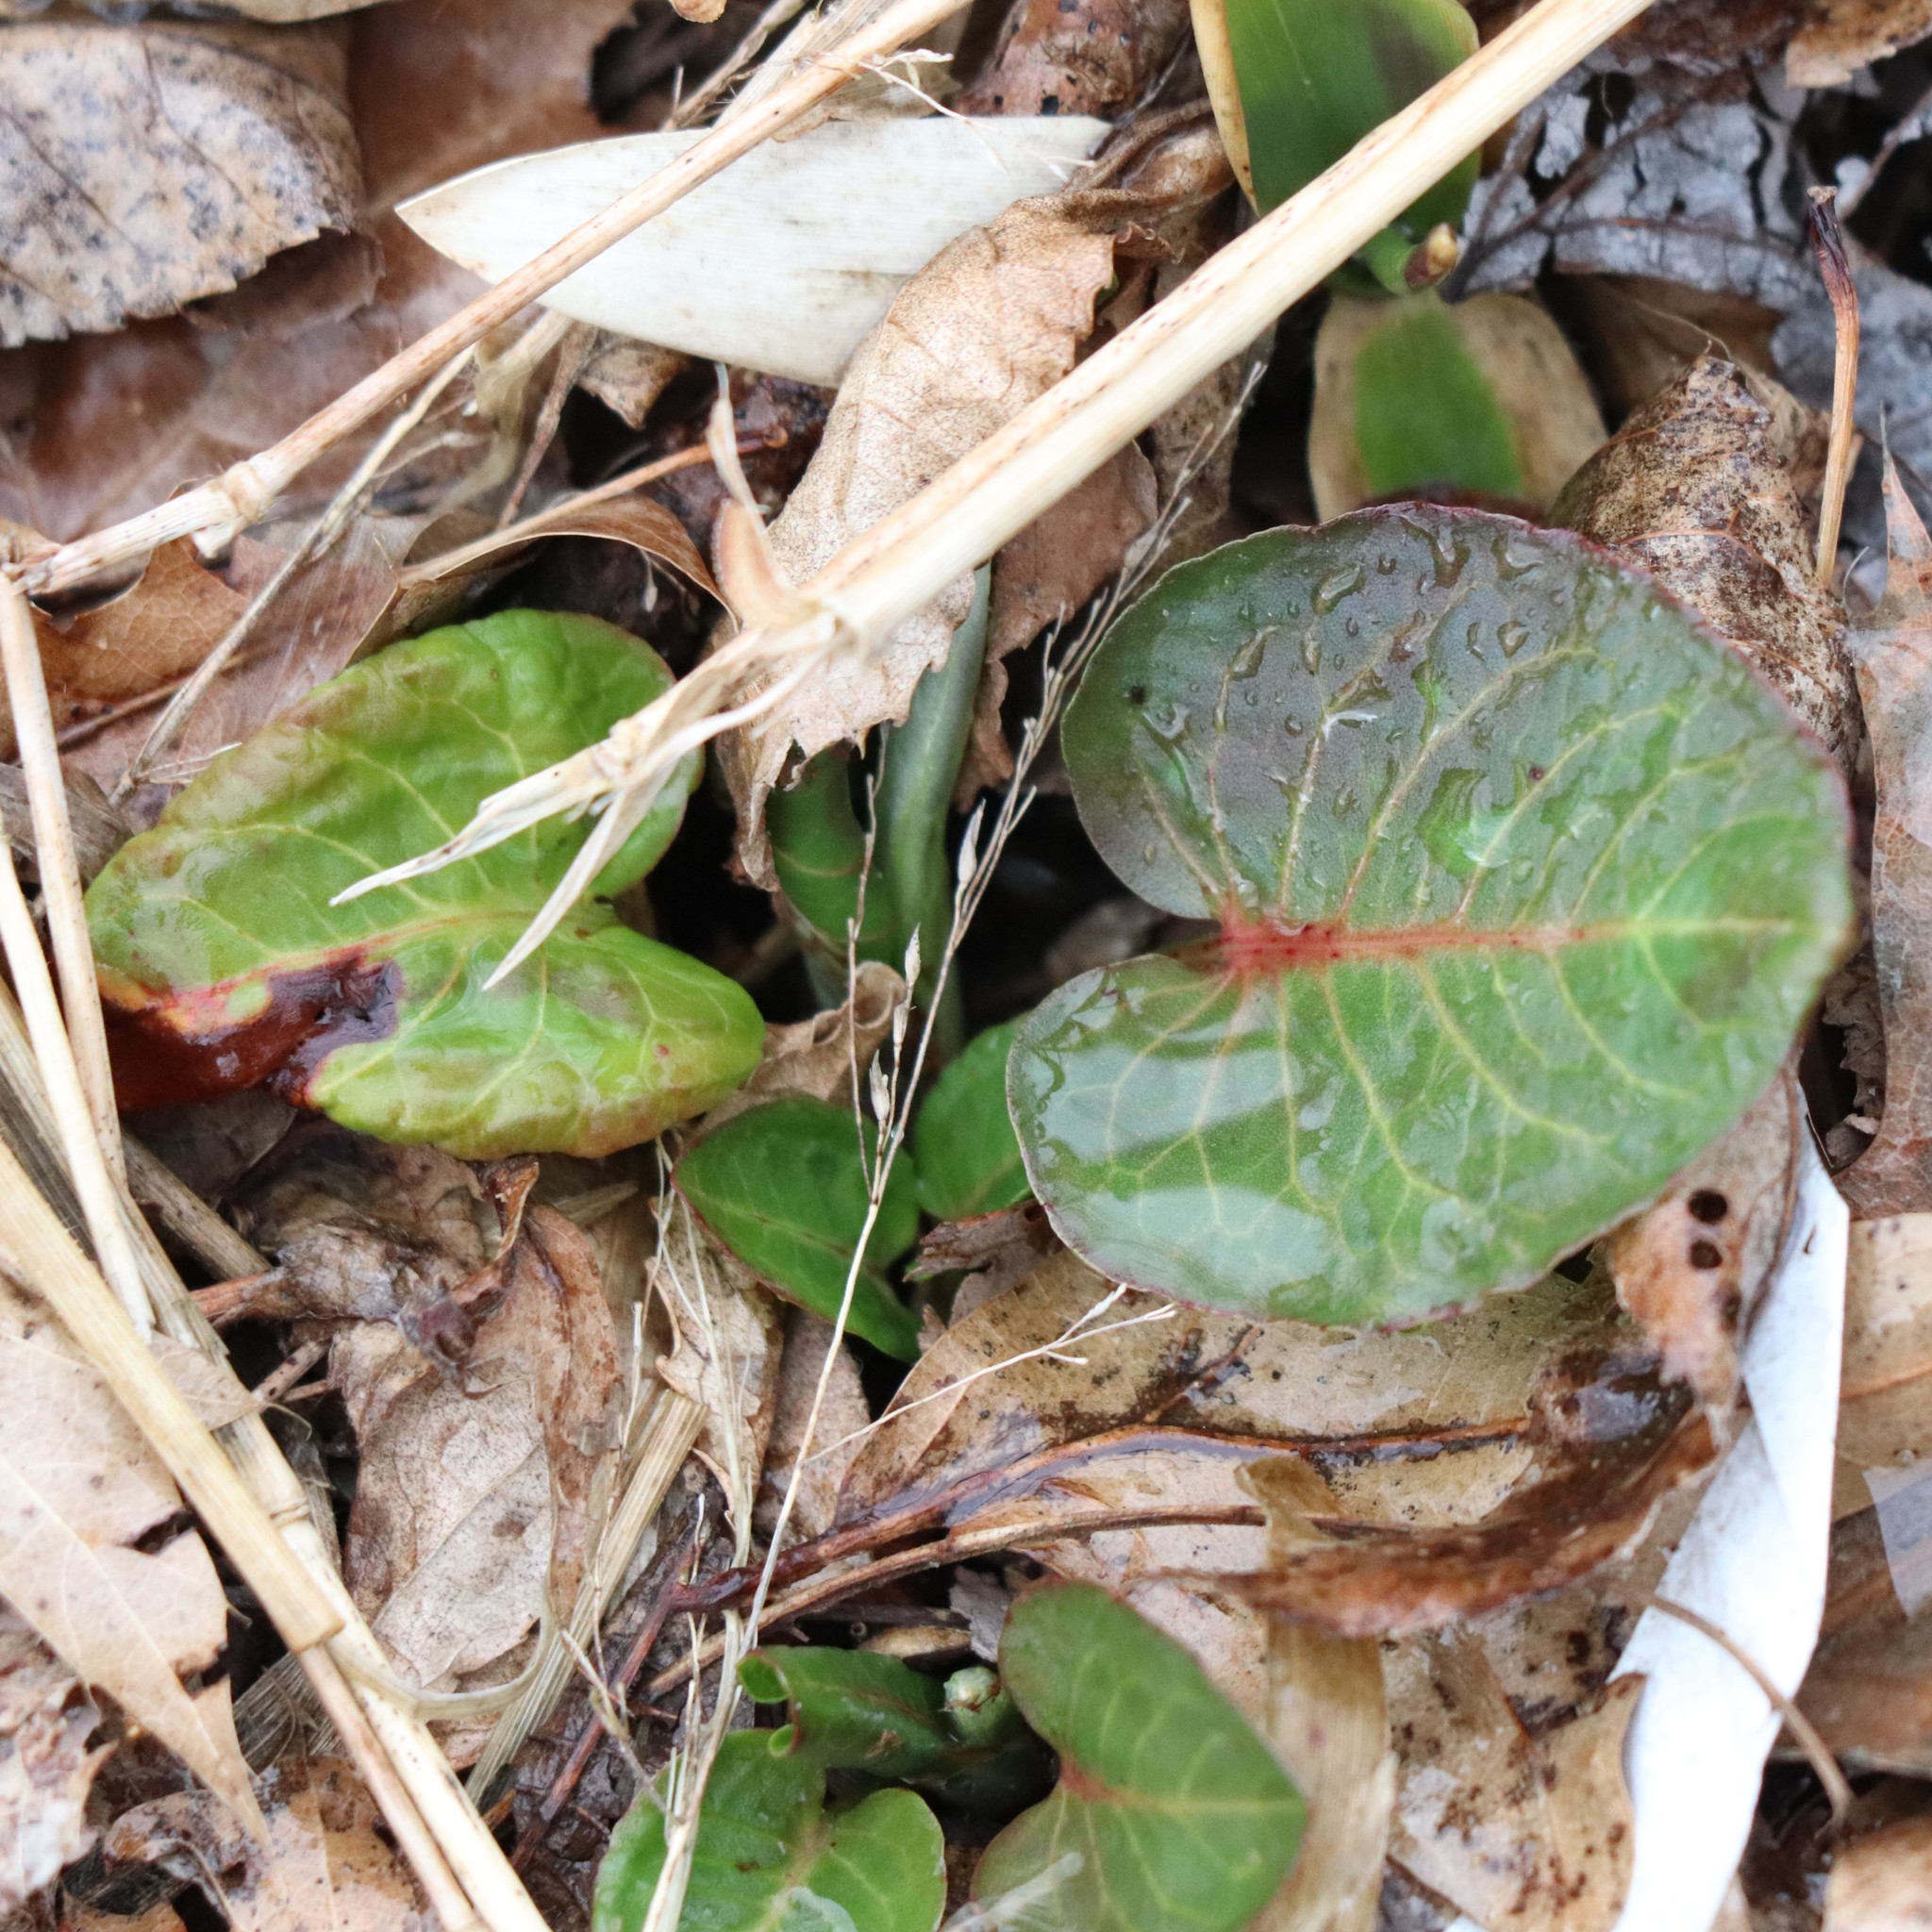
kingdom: Plantae
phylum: Tracheophyta
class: Magnoliopsida
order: Caryophyllales
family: Polygonaceae
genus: Rumex
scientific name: Rumex obtusifolius
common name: Bitter dock
